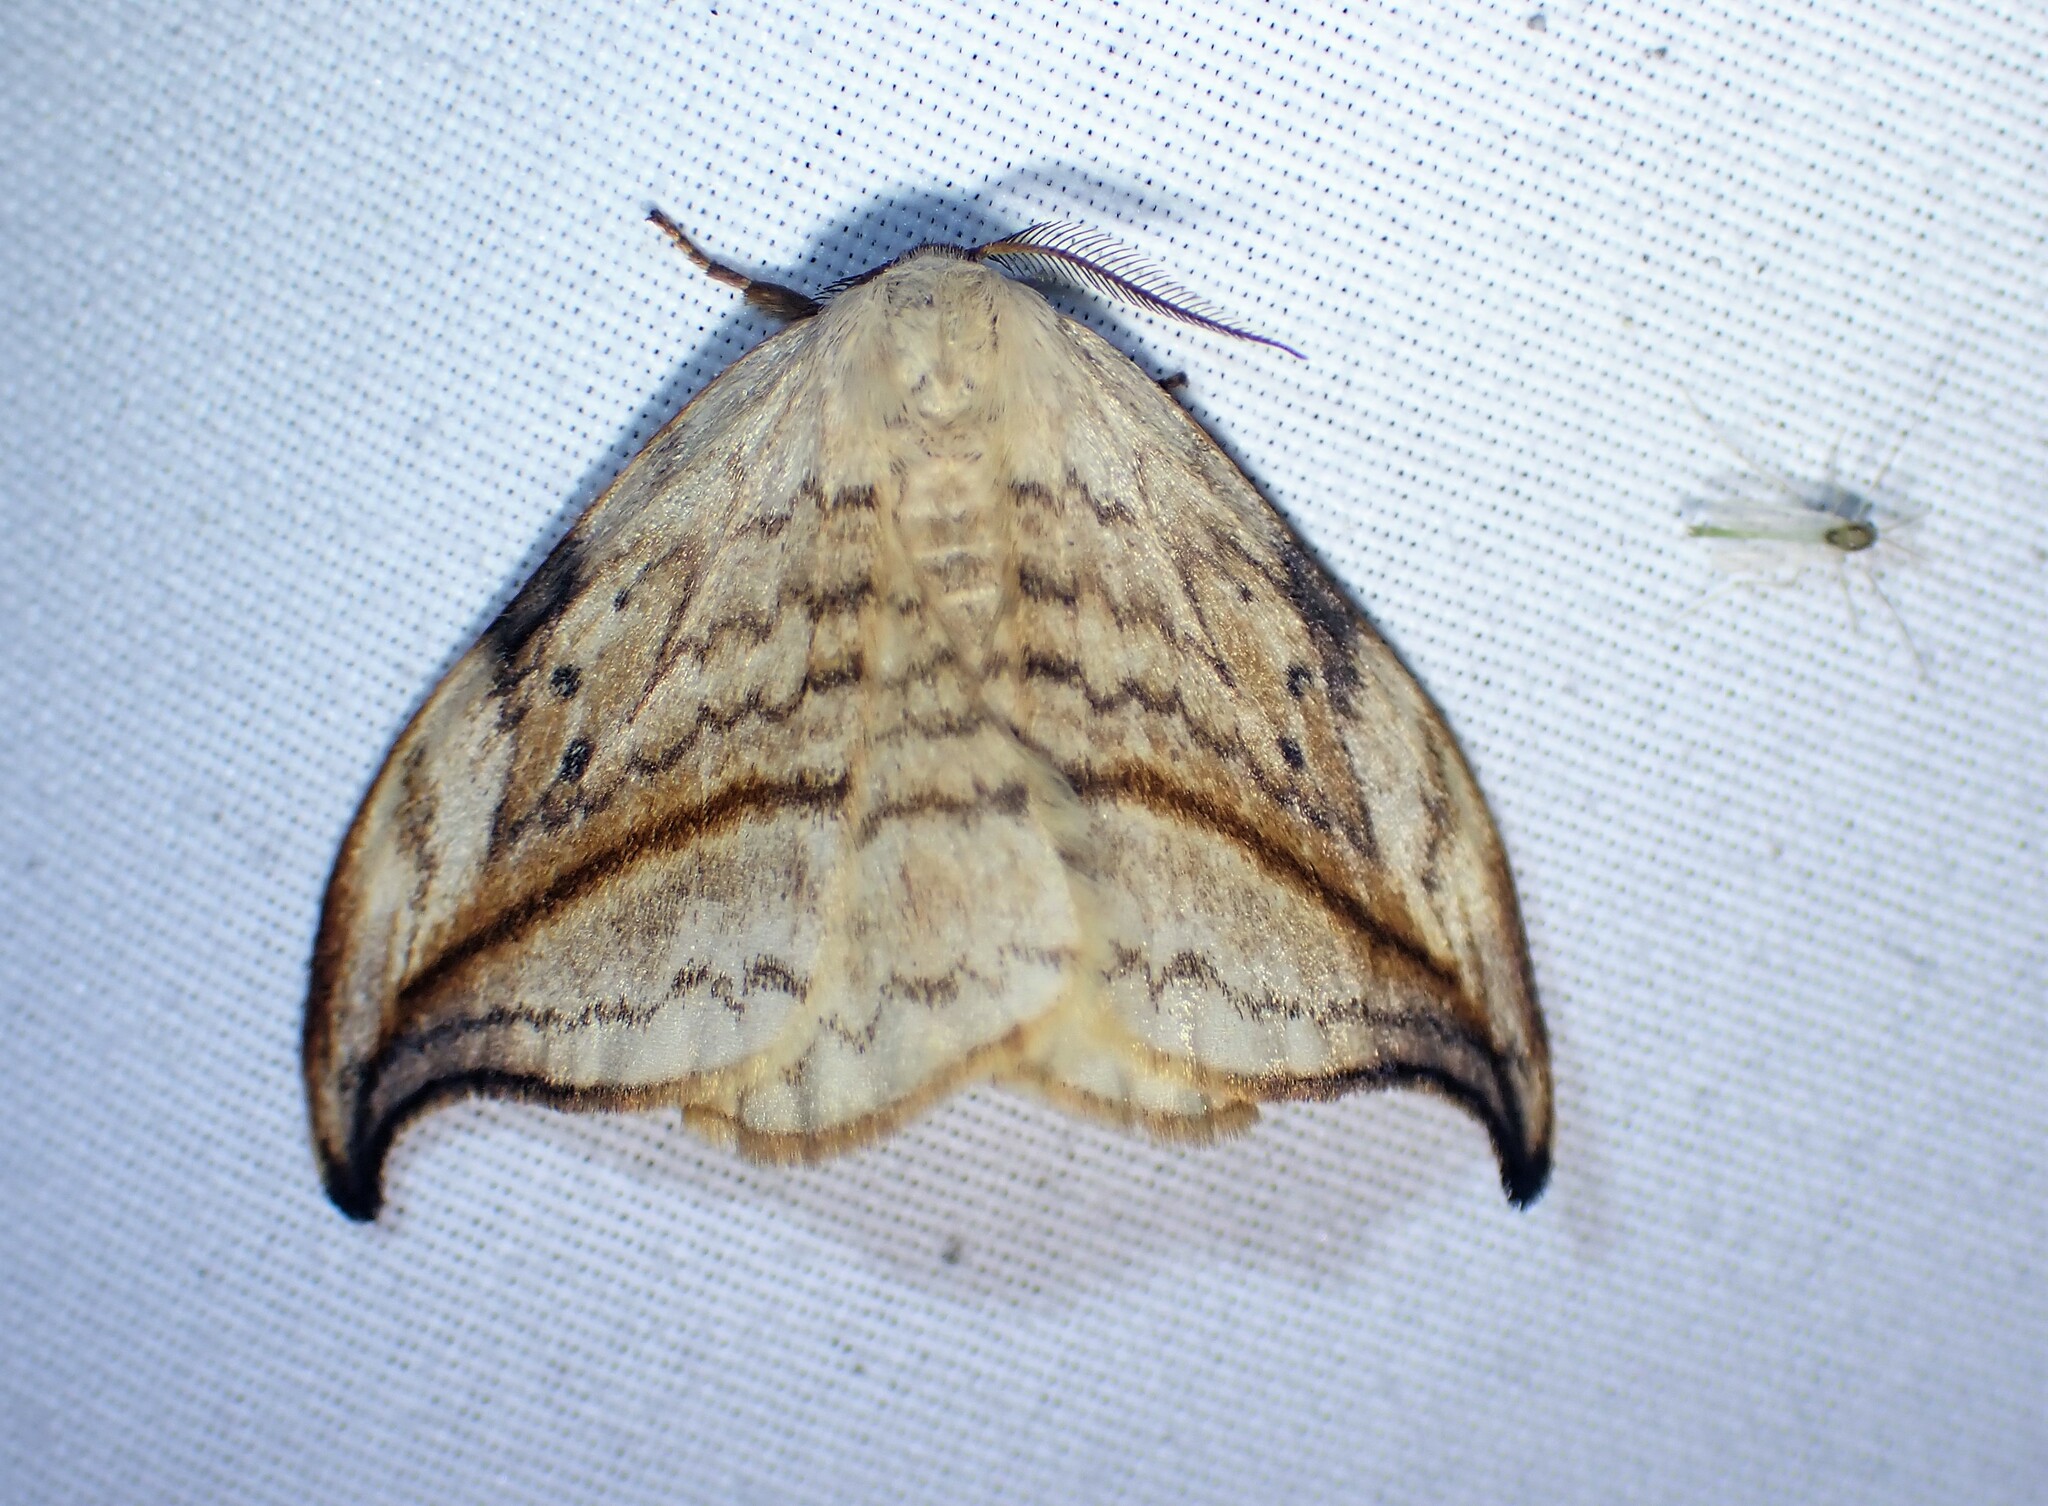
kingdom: Animalia
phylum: Arthropoda
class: Insecta
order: Lepidoptera
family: Drepanidae
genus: Drepana
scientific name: Drepana arcuata
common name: Arched hooktip moth
